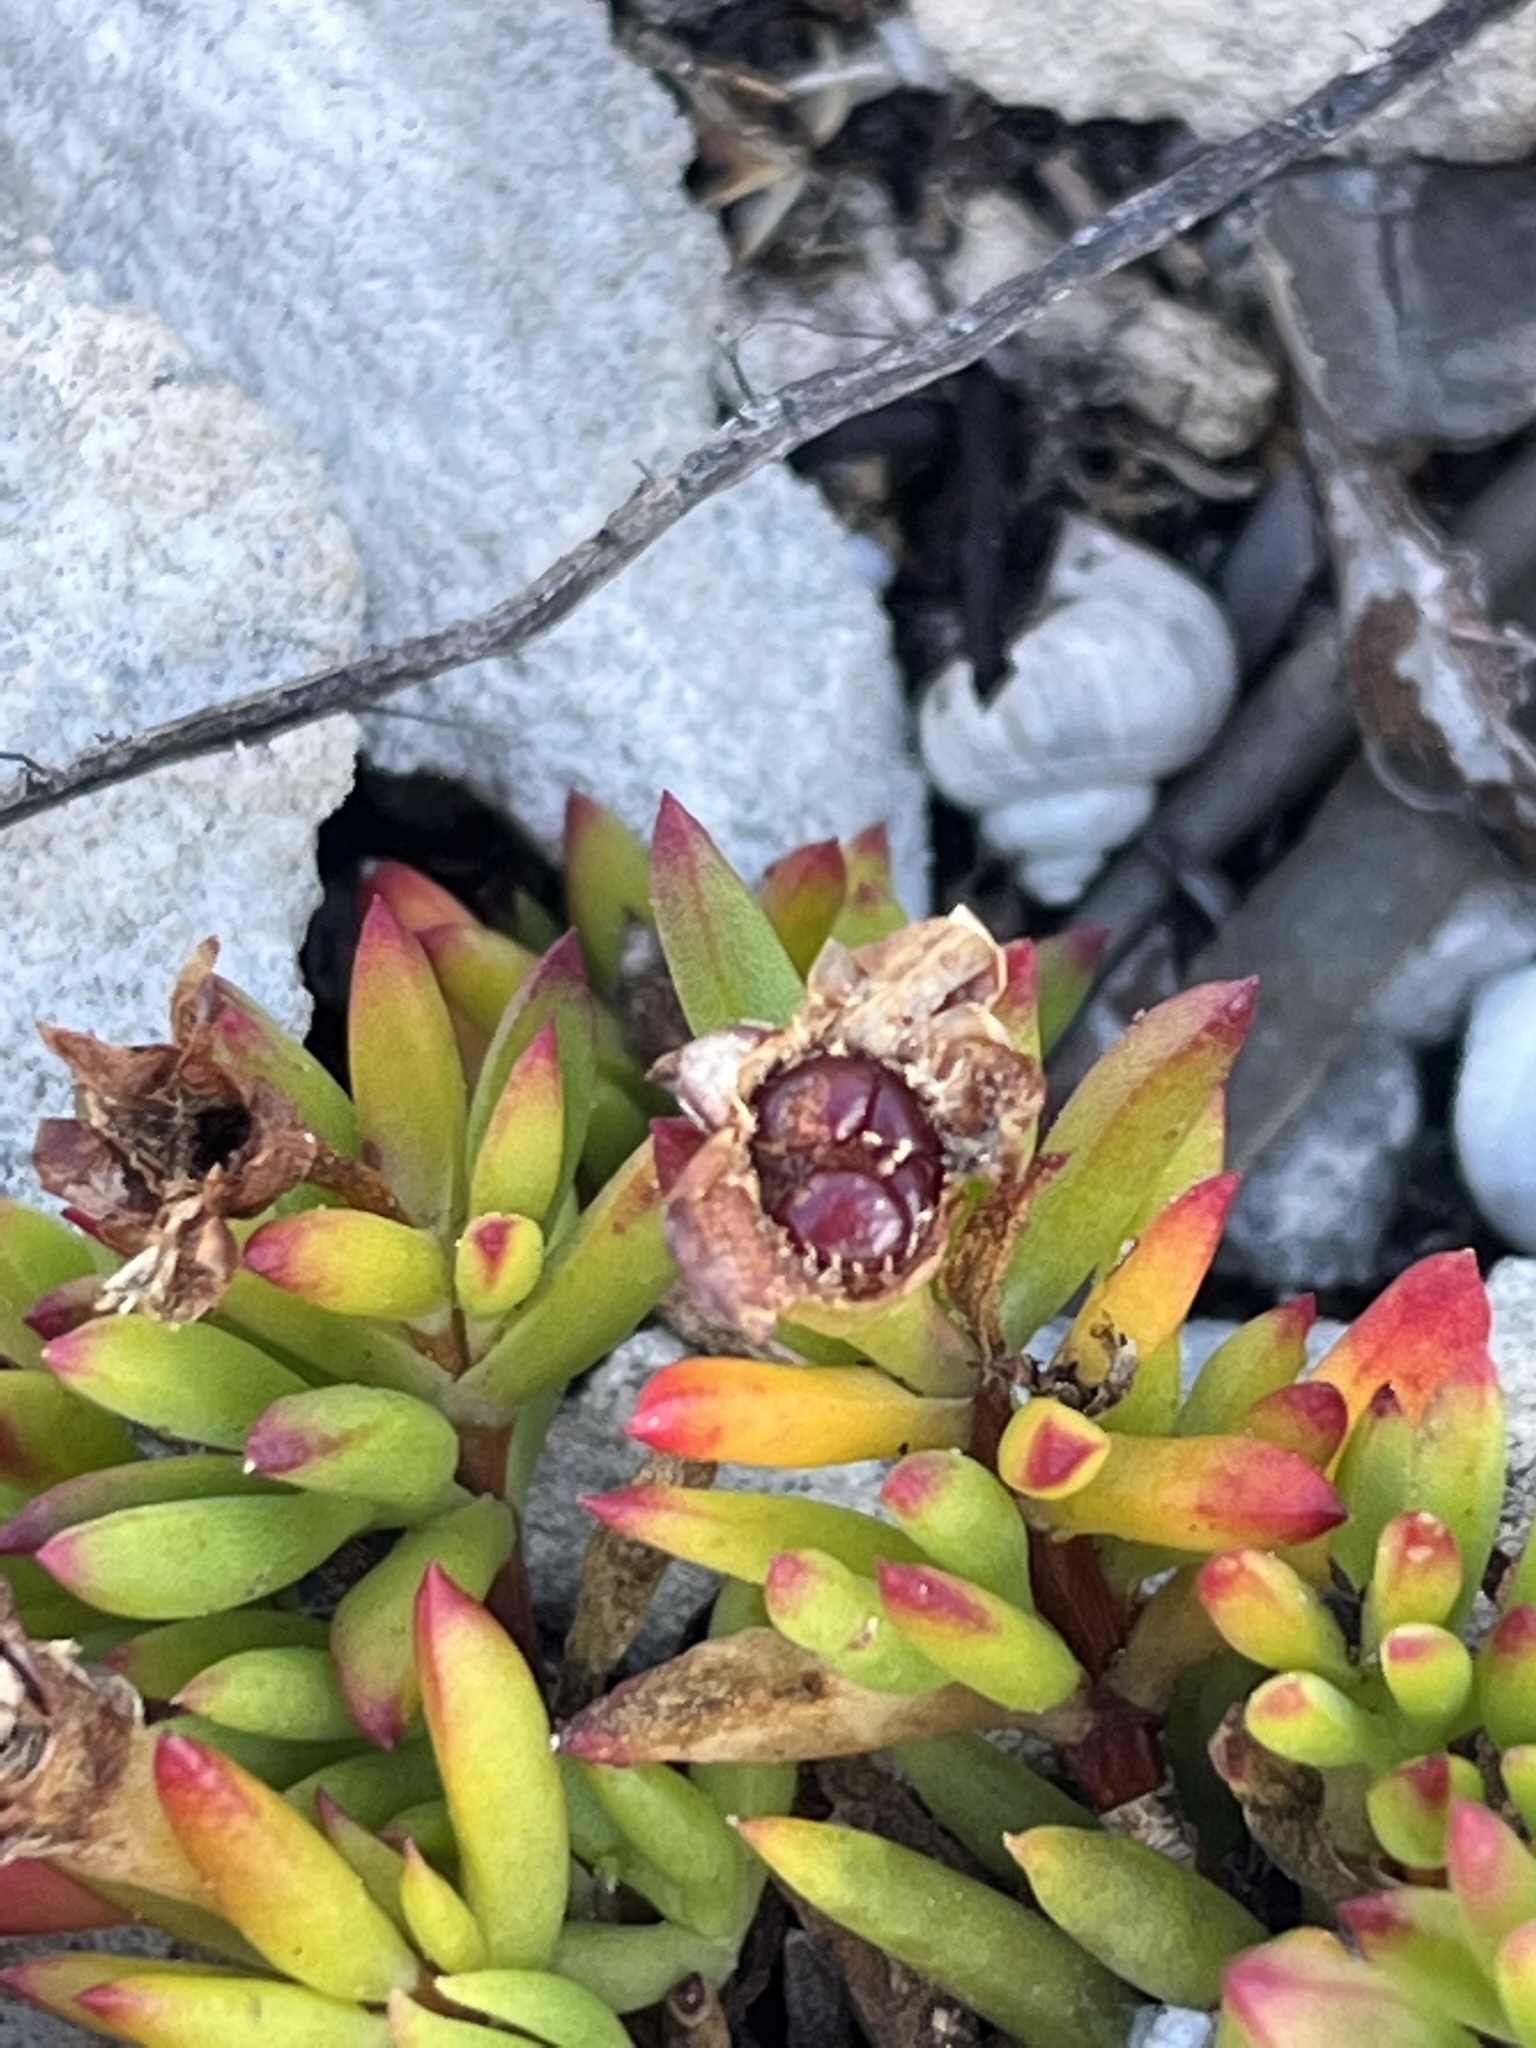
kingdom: Plantae
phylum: Tracheophyta
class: Magnoliopsida
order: Caryophyllales
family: Aizoaceae
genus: Lampranthus
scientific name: Lampranthus glomeratus
